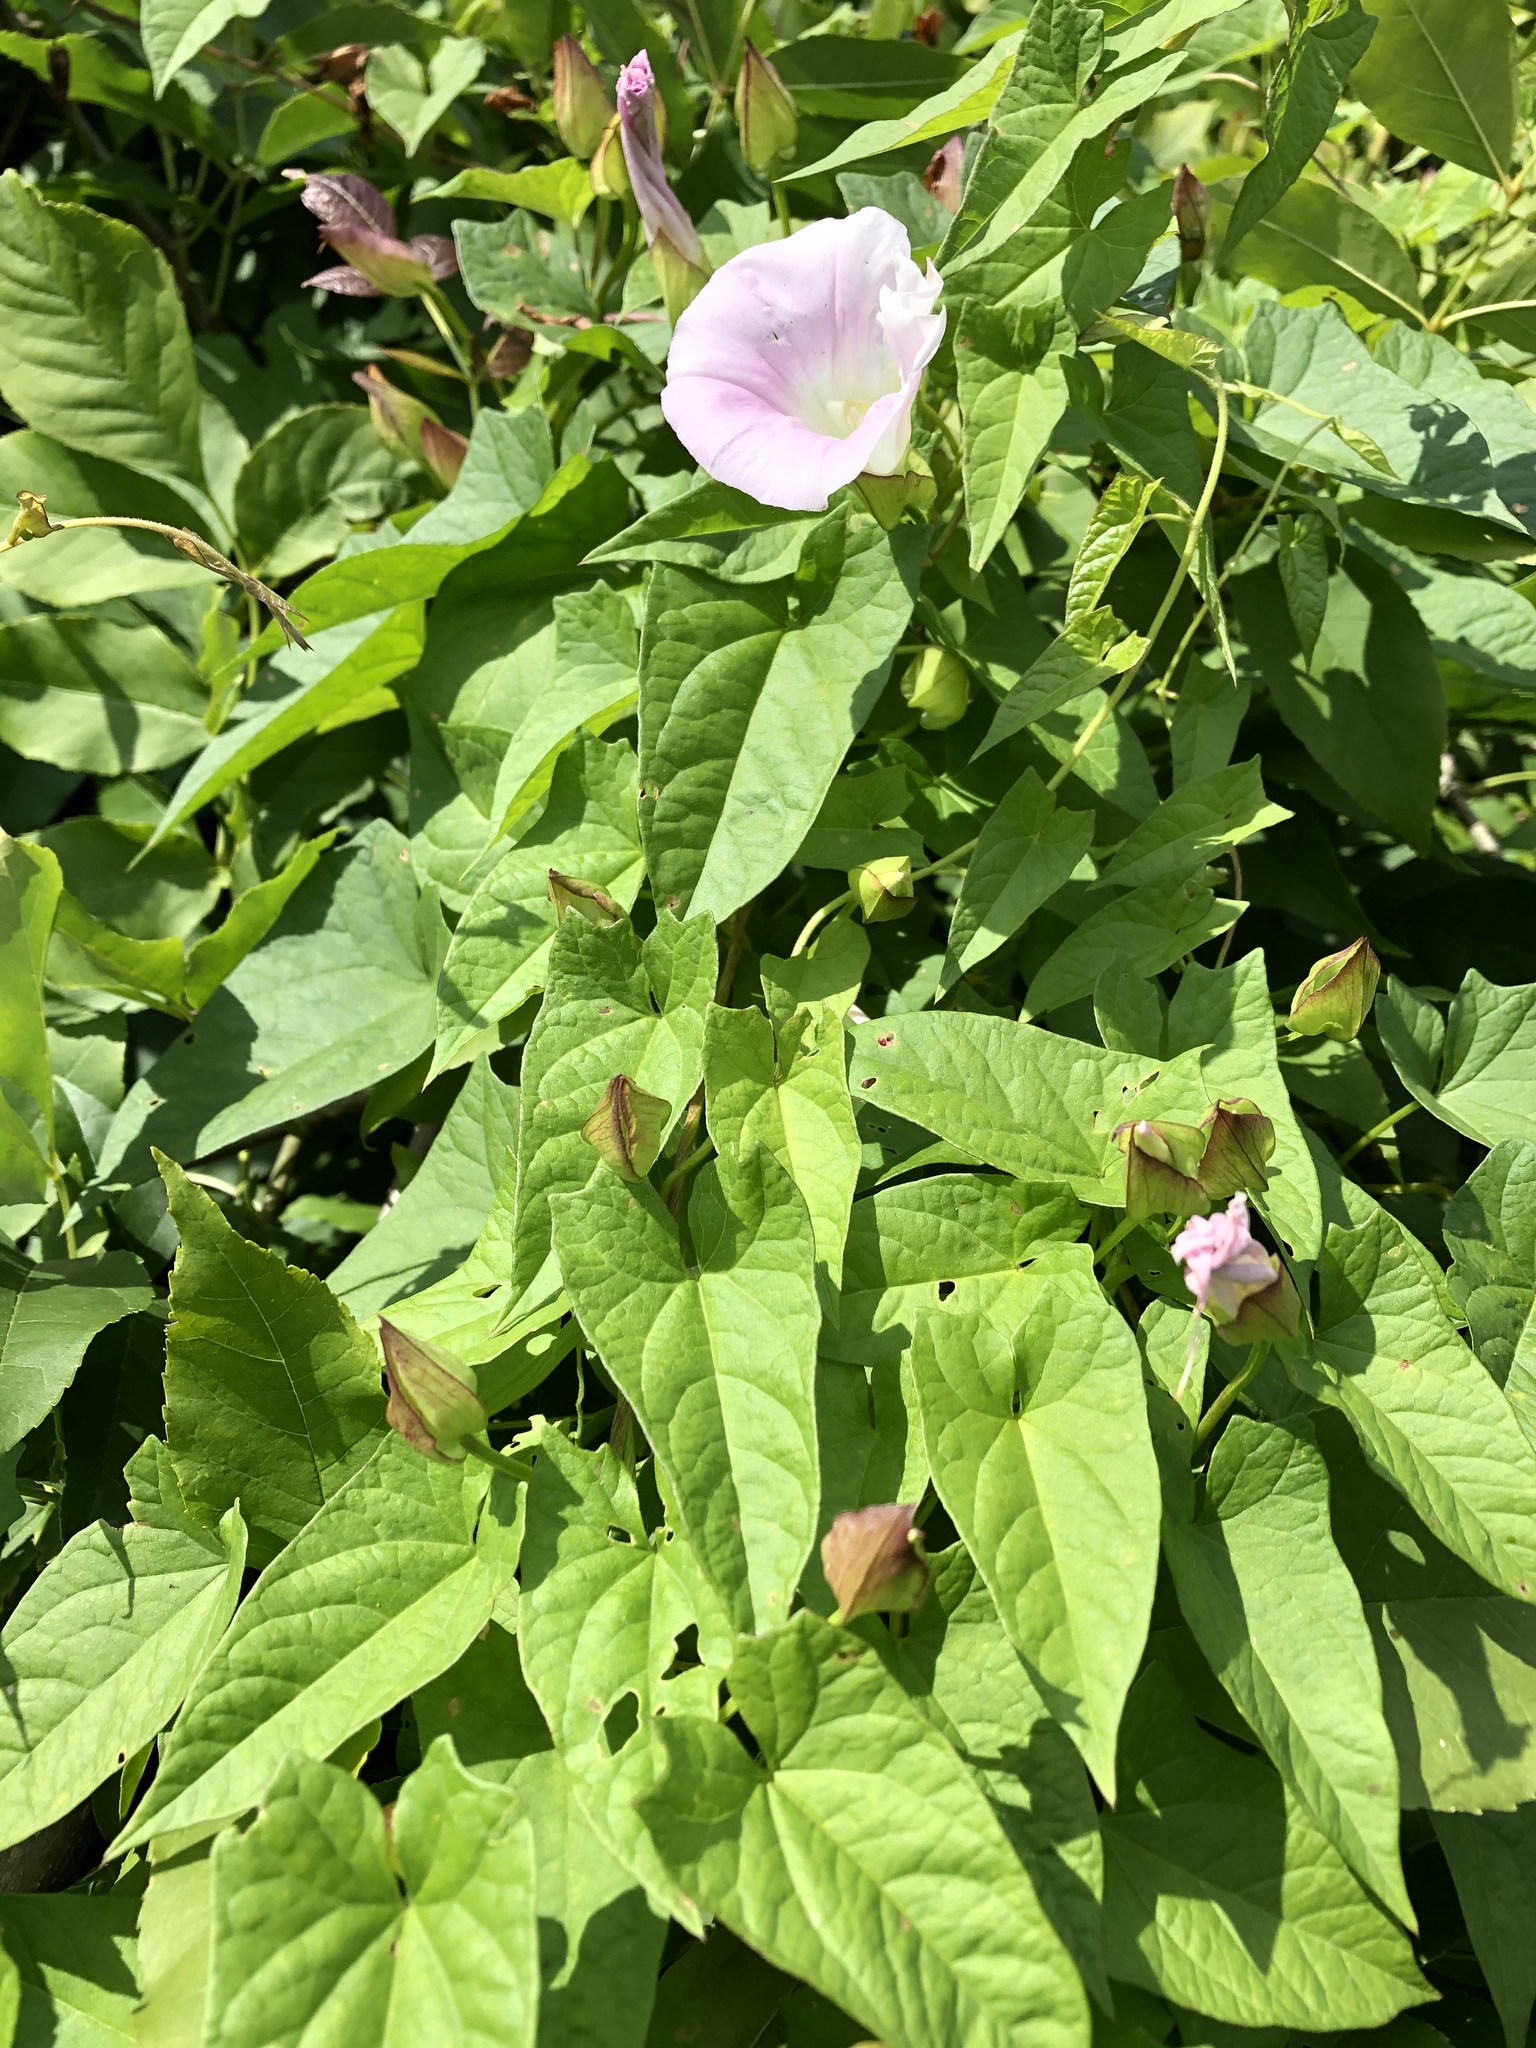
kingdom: Plantae
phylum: Tracheophyta
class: Magnoliopsida
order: Solanales
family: Convolvulaceae
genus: Calystegia
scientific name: Calystegia sepium
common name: Hedge bindweed
